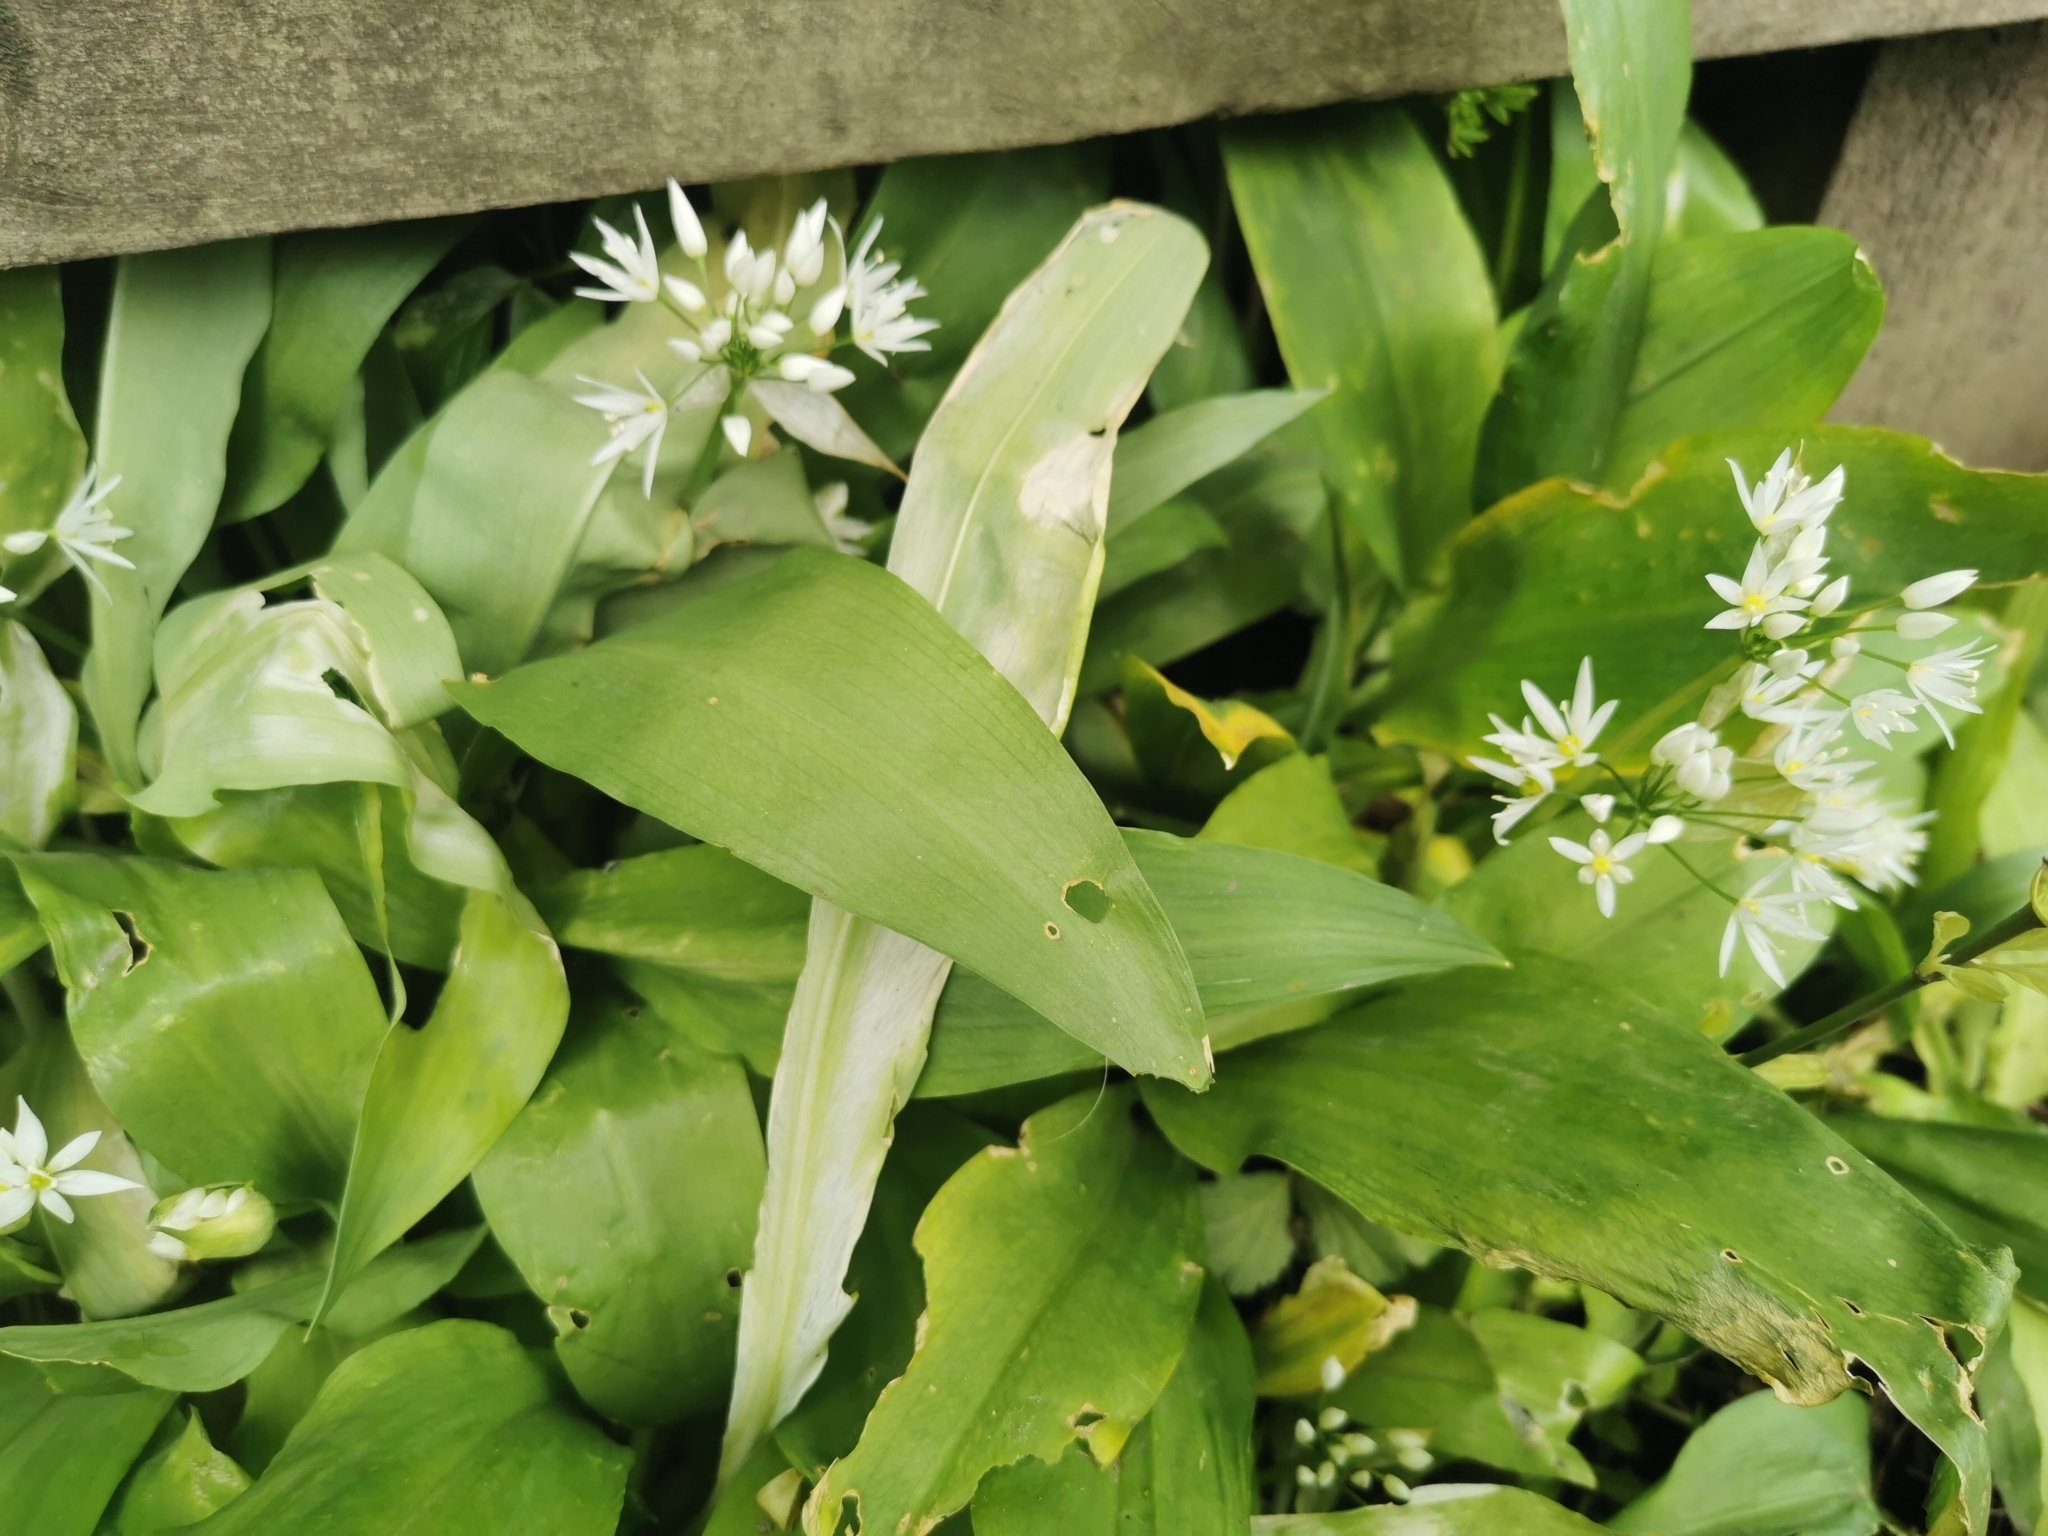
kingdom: Plantae
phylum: Tracheophyta
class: Liliopsida
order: Asparagales
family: Amaryllidaceae
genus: Allium
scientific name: Allium ursinum
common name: Ramsons
